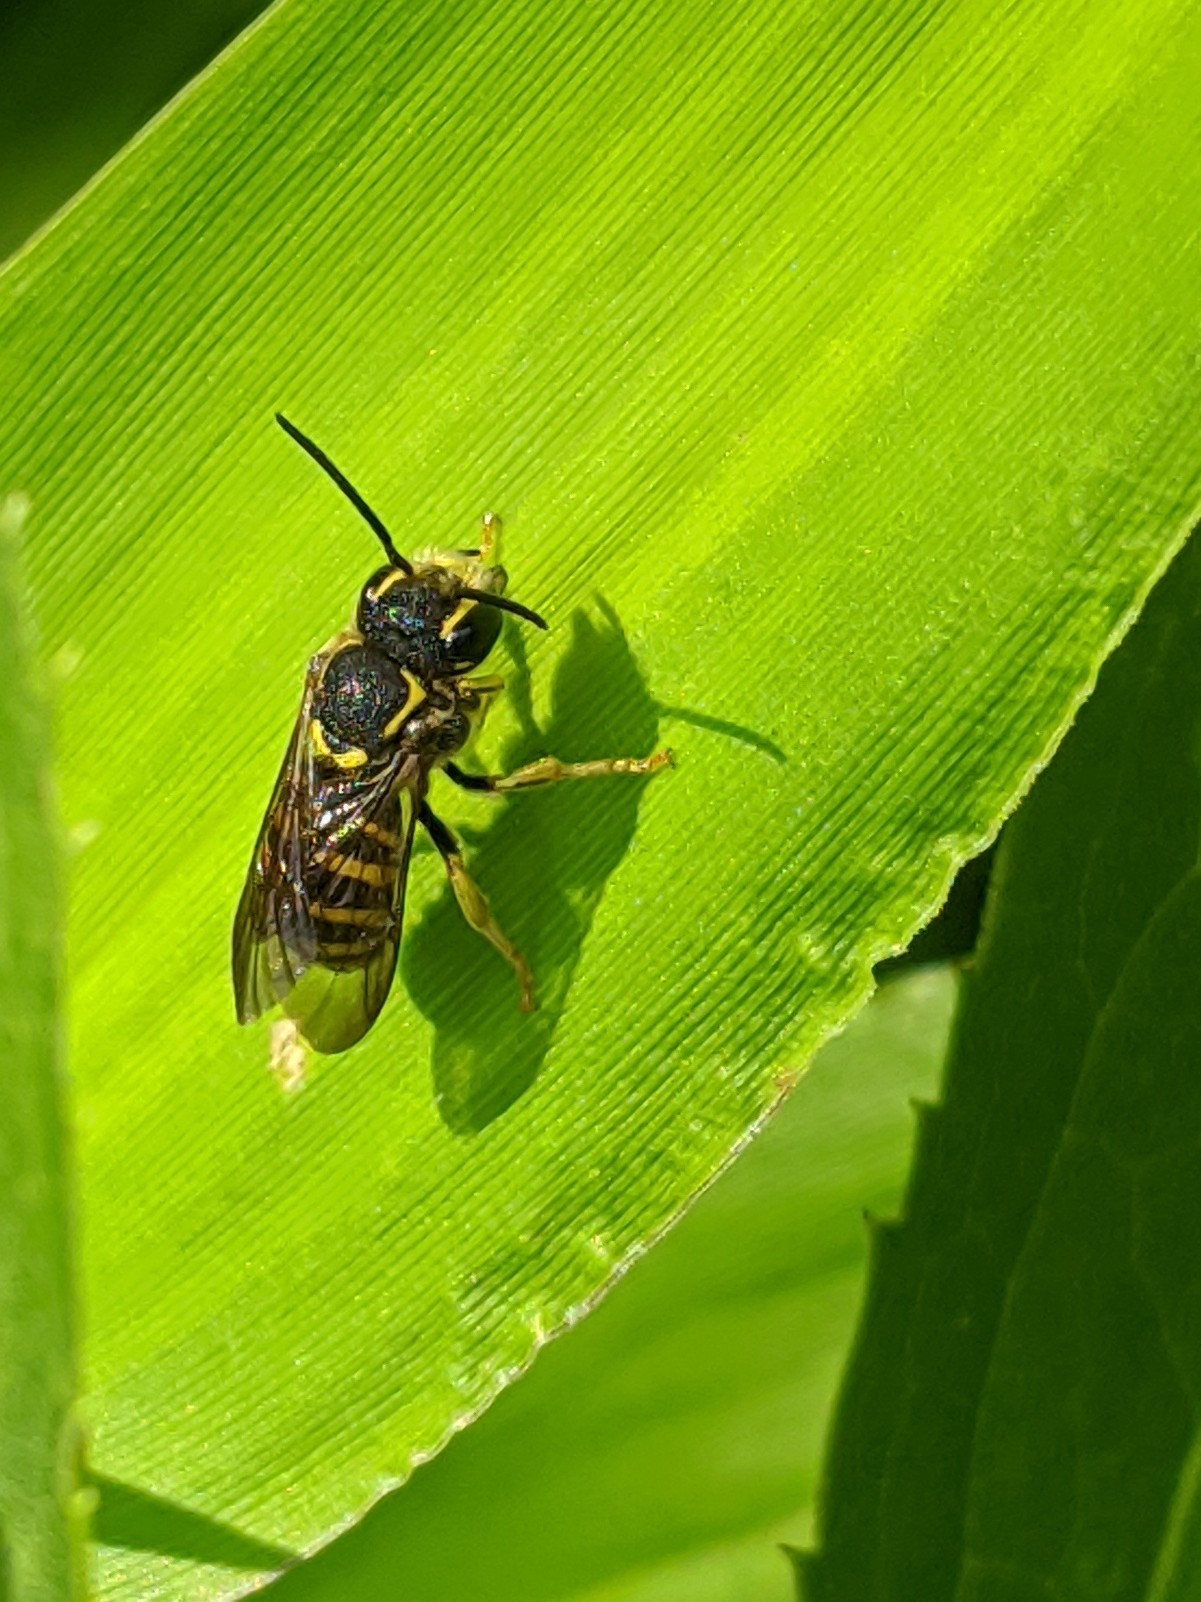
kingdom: Animalia
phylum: Arthropoda
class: Insecta
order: Hymenoptera
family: Megachilidae
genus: Paranthidium
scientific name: Paranthidium jugatorium
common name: Sunflower burrowing-resin bee
